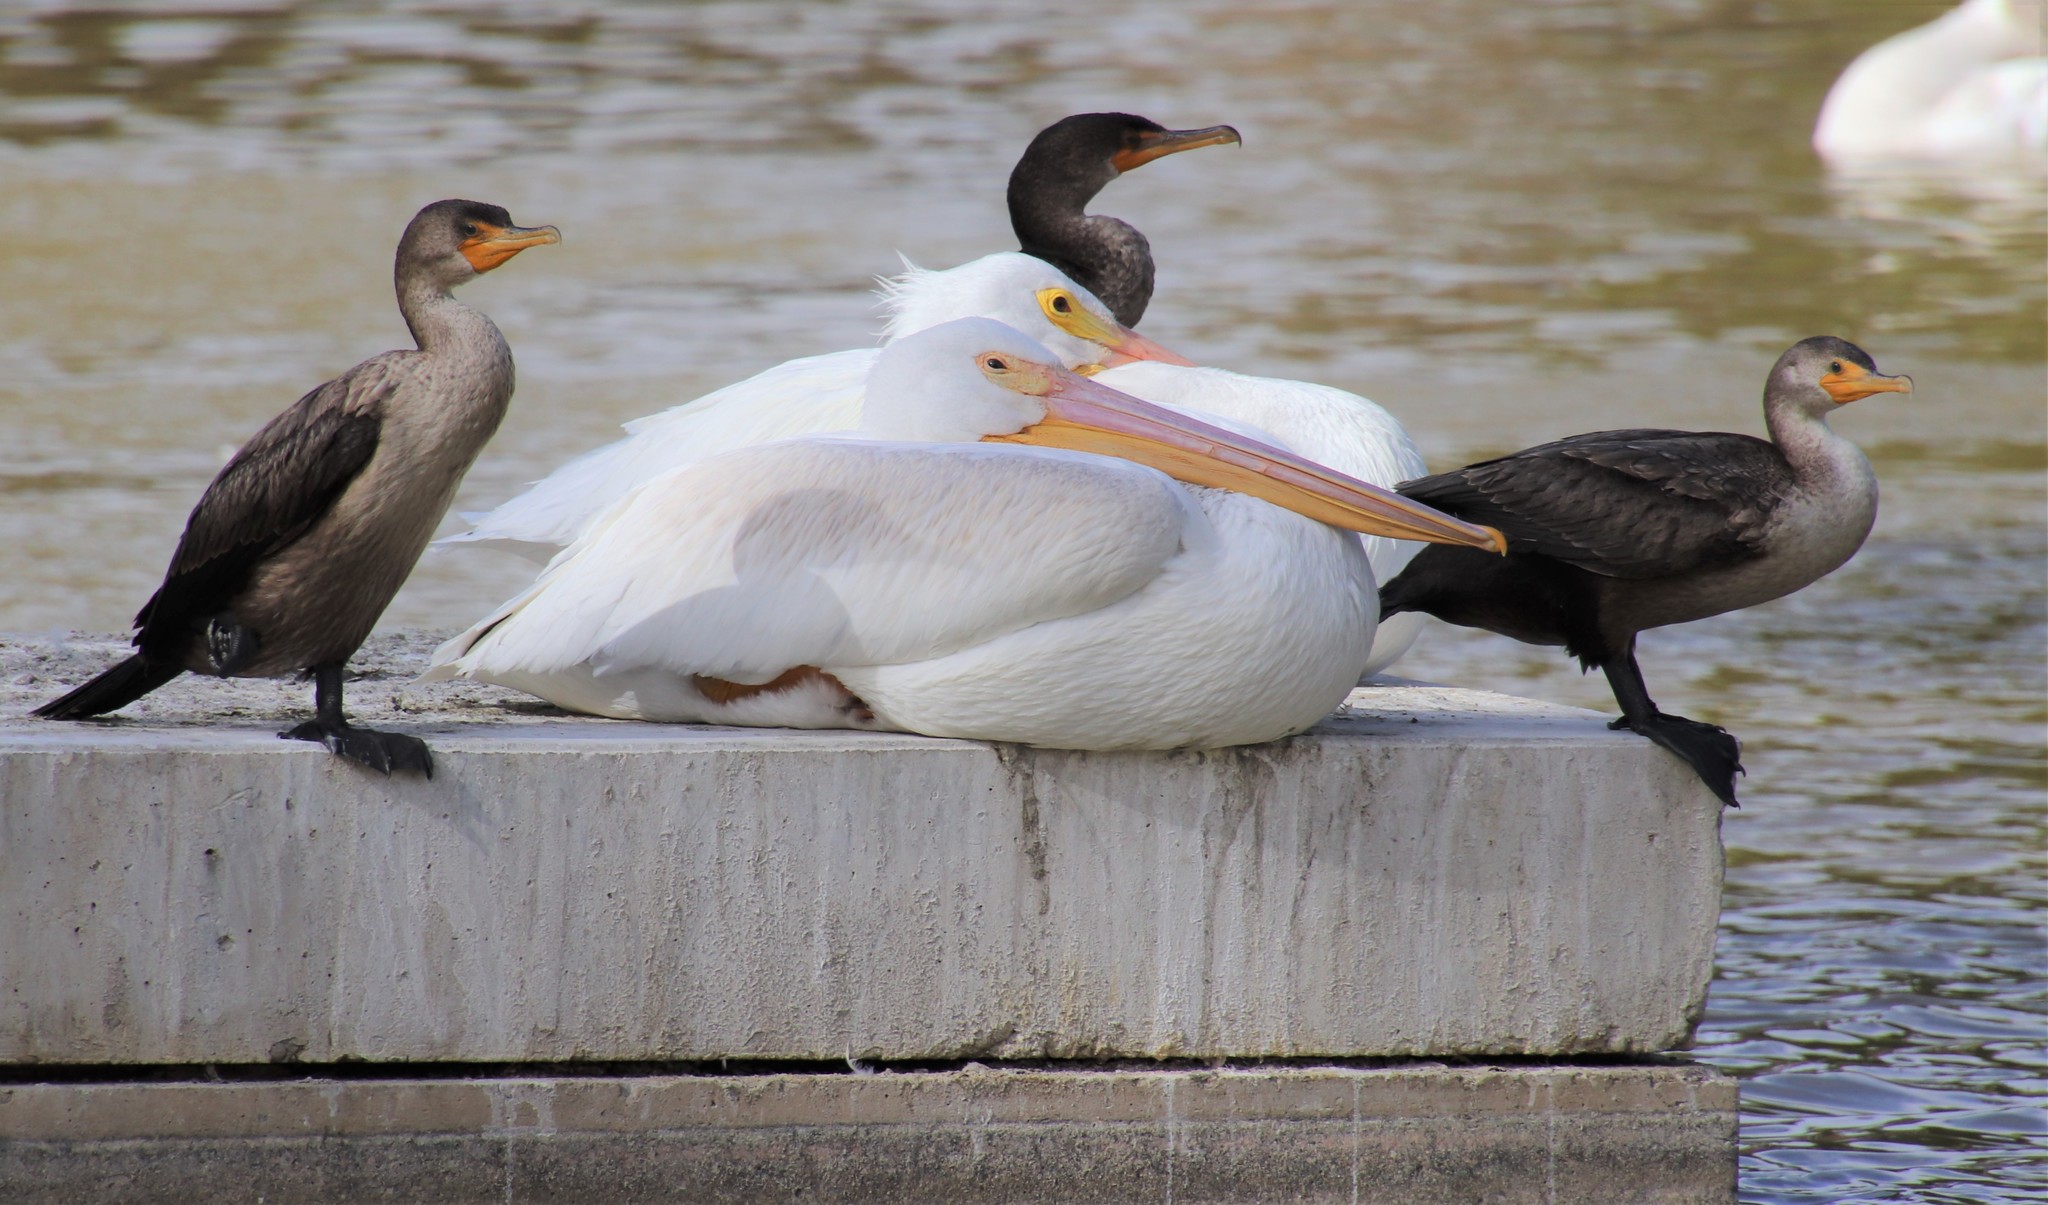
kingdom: Animalia
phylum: Chordata
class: Aves
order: Suliformes
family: Phalacrocoracidae
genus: Phalacrocorax
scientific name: Phalacrocorax auritus
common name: Double-crested cormorant
